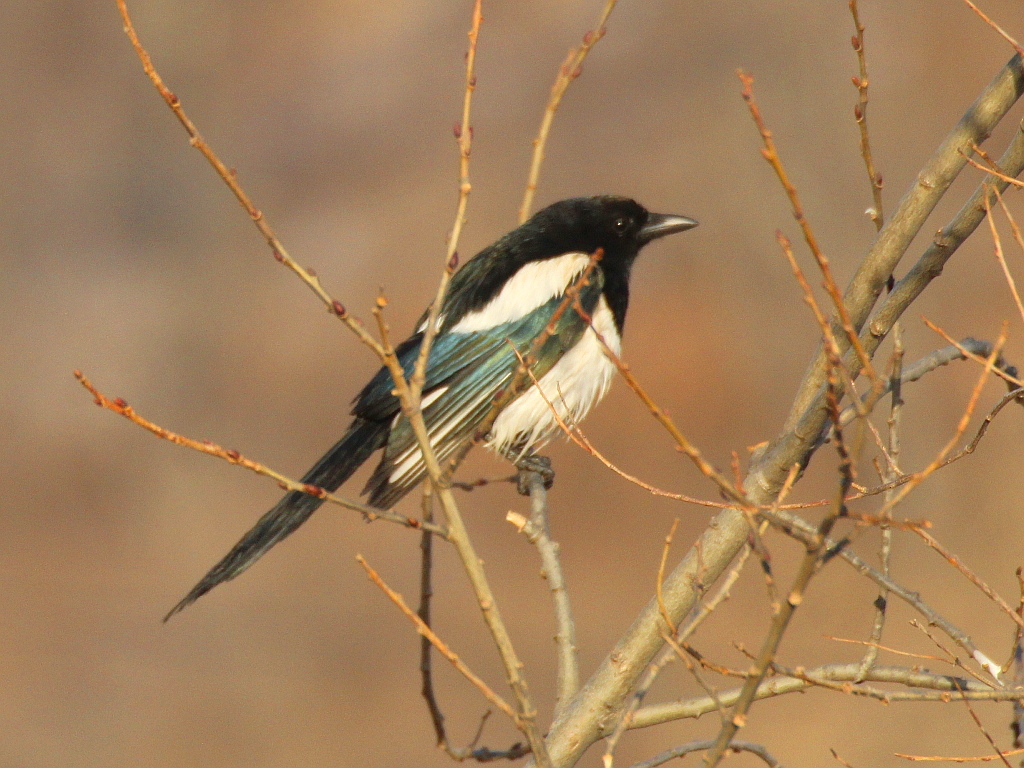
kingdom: Animalia
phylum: Chordata
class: Aves
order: Passeriformes
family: Corvidae
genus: Pica
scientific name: Pica serica
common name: Oriental magpie
